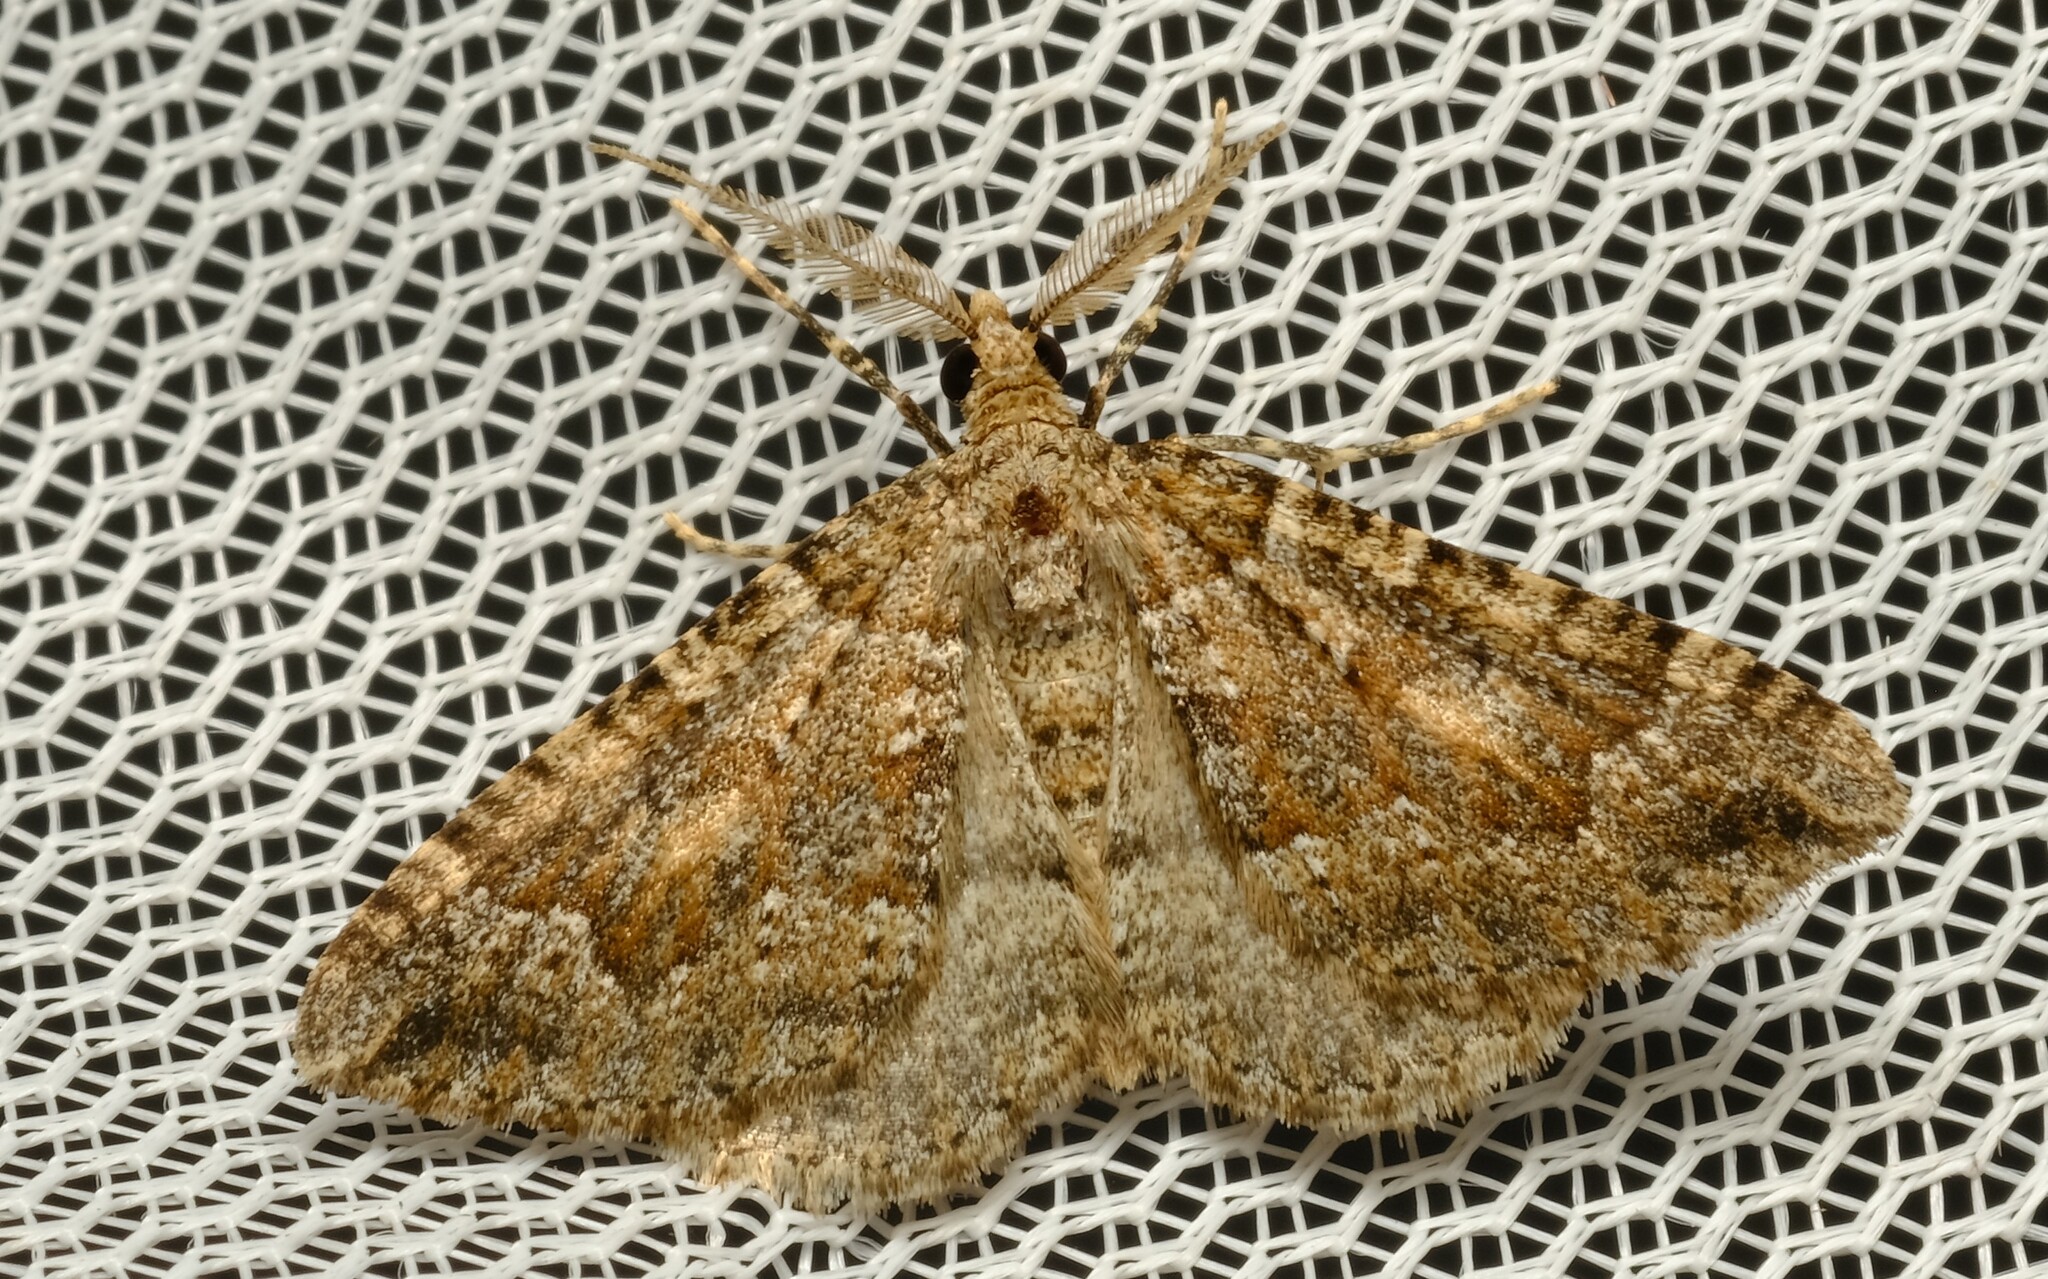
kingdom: Animalia
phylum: Arthropoda
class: Insecta
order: Lepidoptera
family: Geometridae
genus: Epyaxa
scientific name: Epyaxa agelasta
